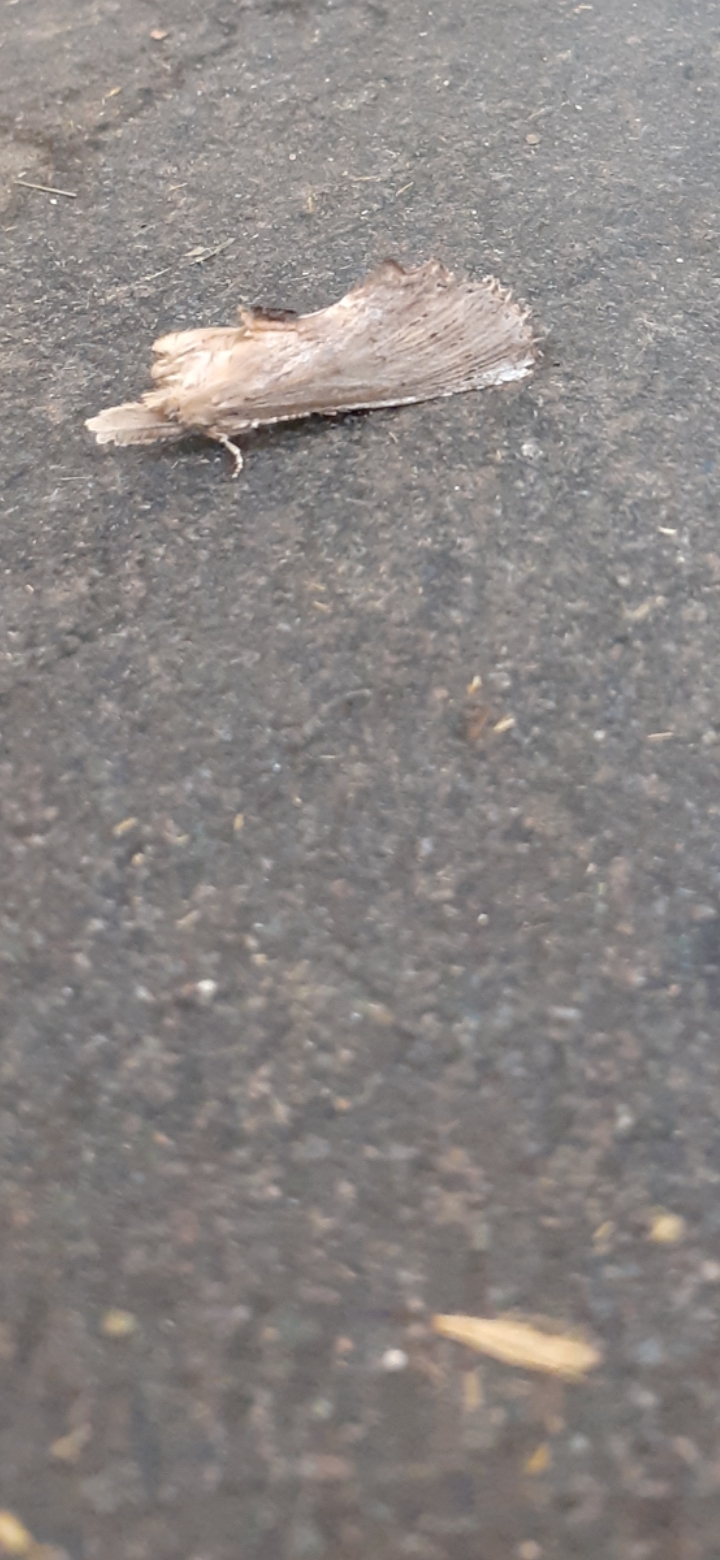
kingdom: Animalia
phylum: Arthropoda
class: Insecta
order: Lepidoptera
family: Notodontidae
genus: Pterostoma
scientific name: Pterostoma palpina
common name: Pale prominent
